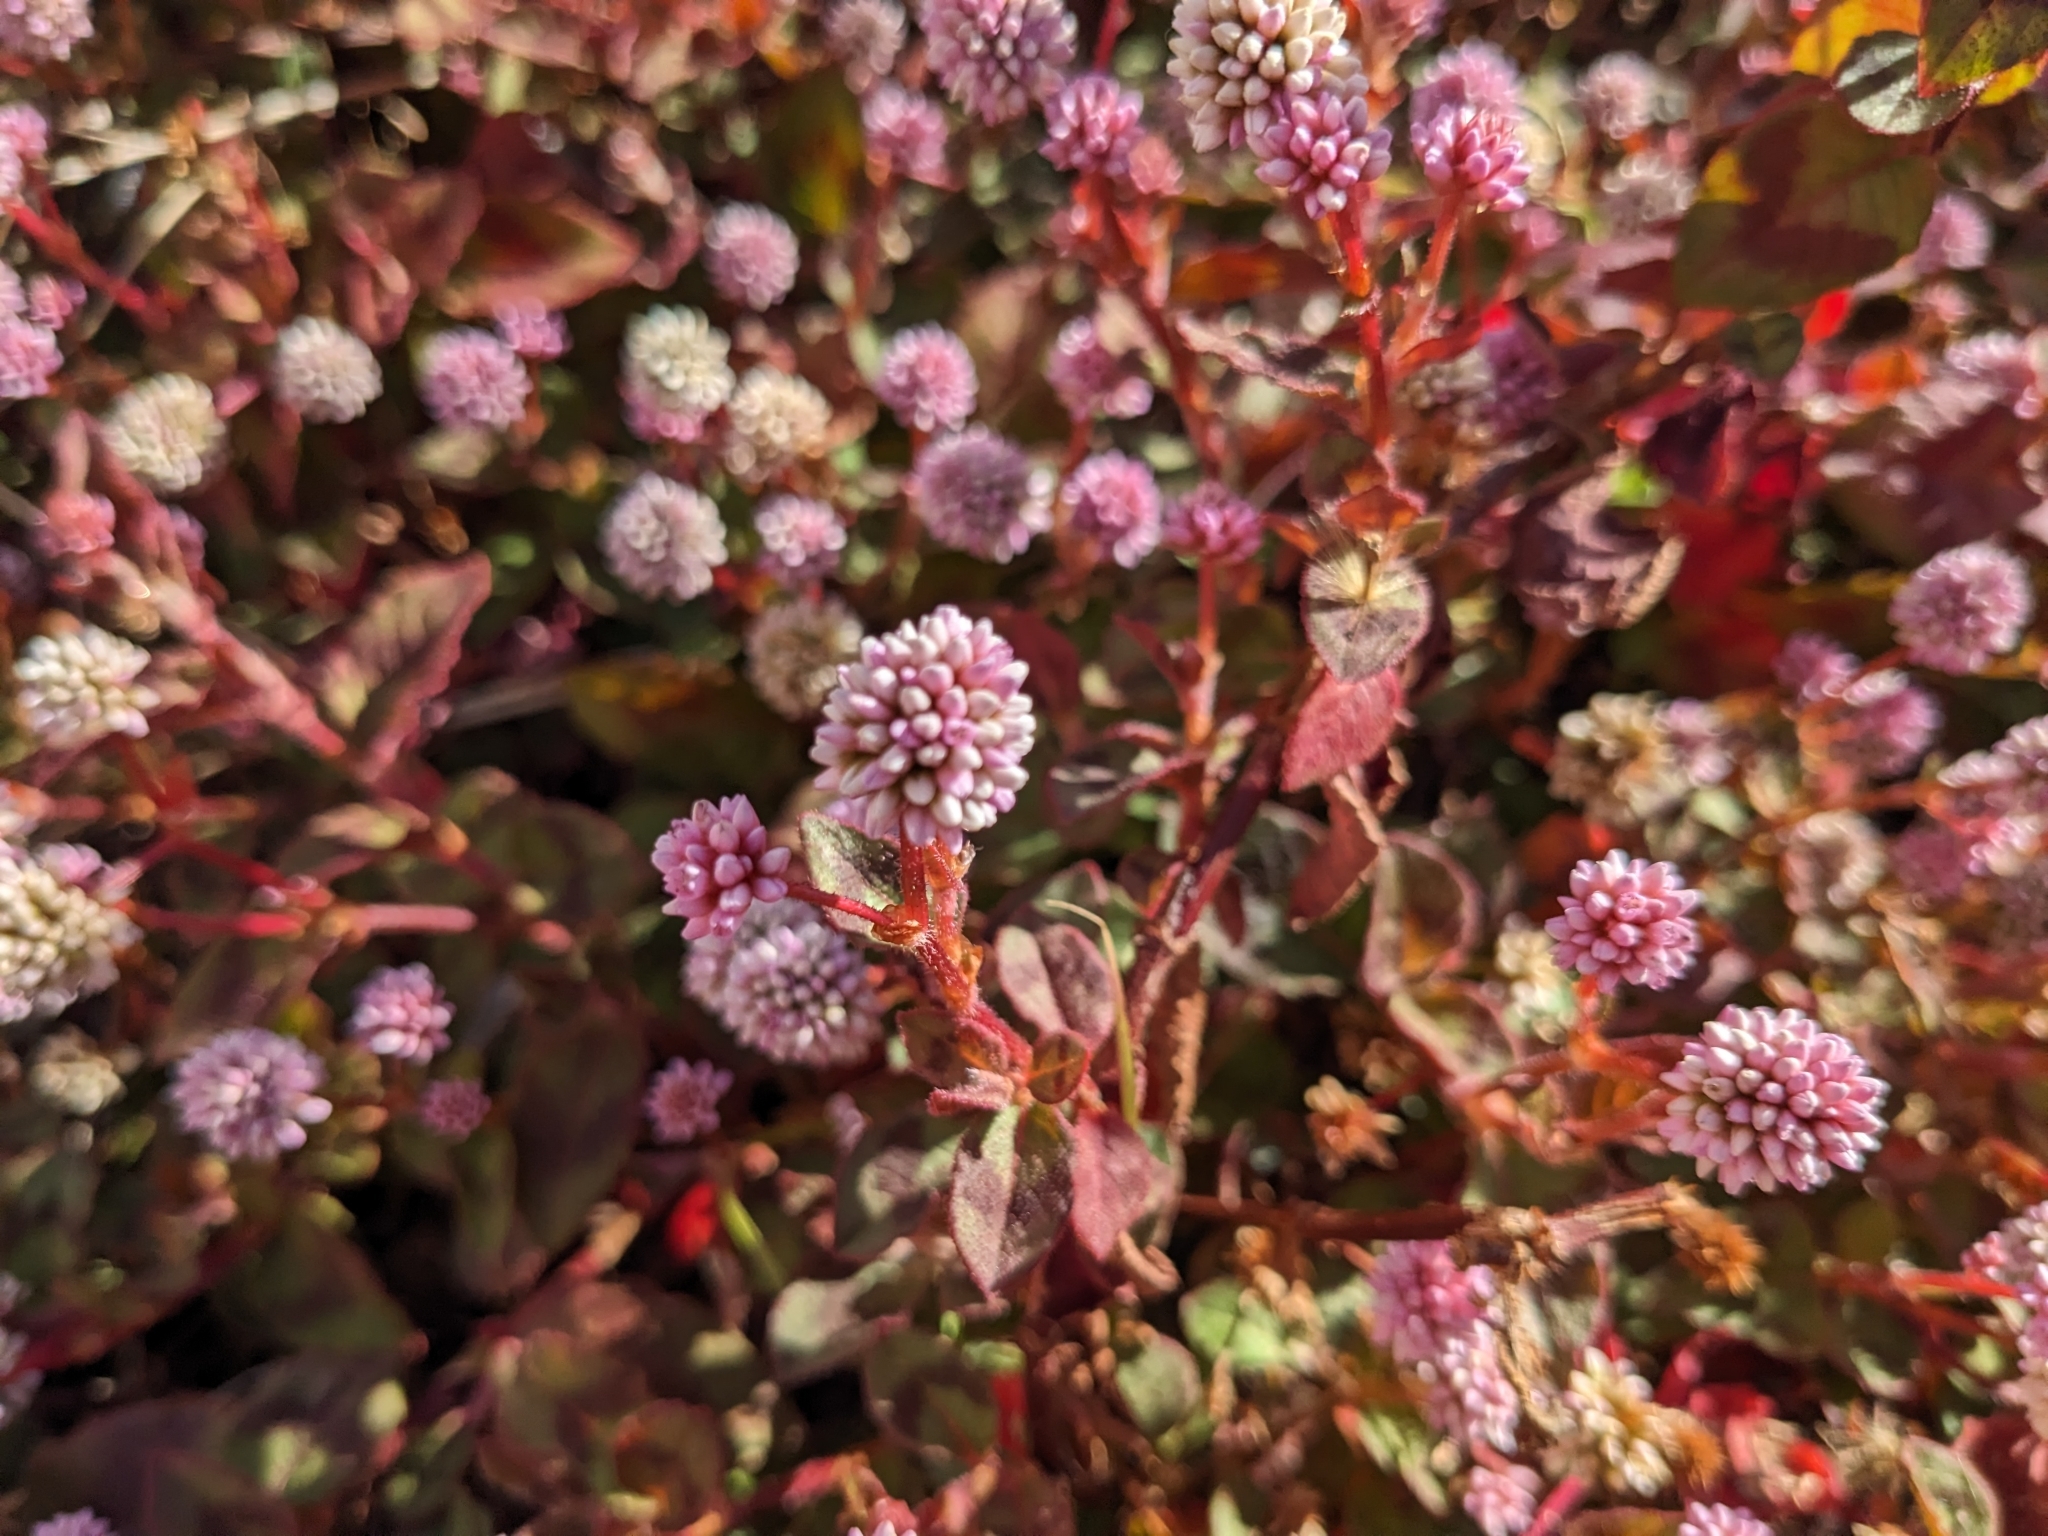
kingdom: Plantae
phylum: Tracheophyta
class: Magnoliopsida
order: Caryophyllales
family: Polygonaceae
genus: Persicaria
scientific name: Persicaria capitata
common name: Pinkhead smartweed
